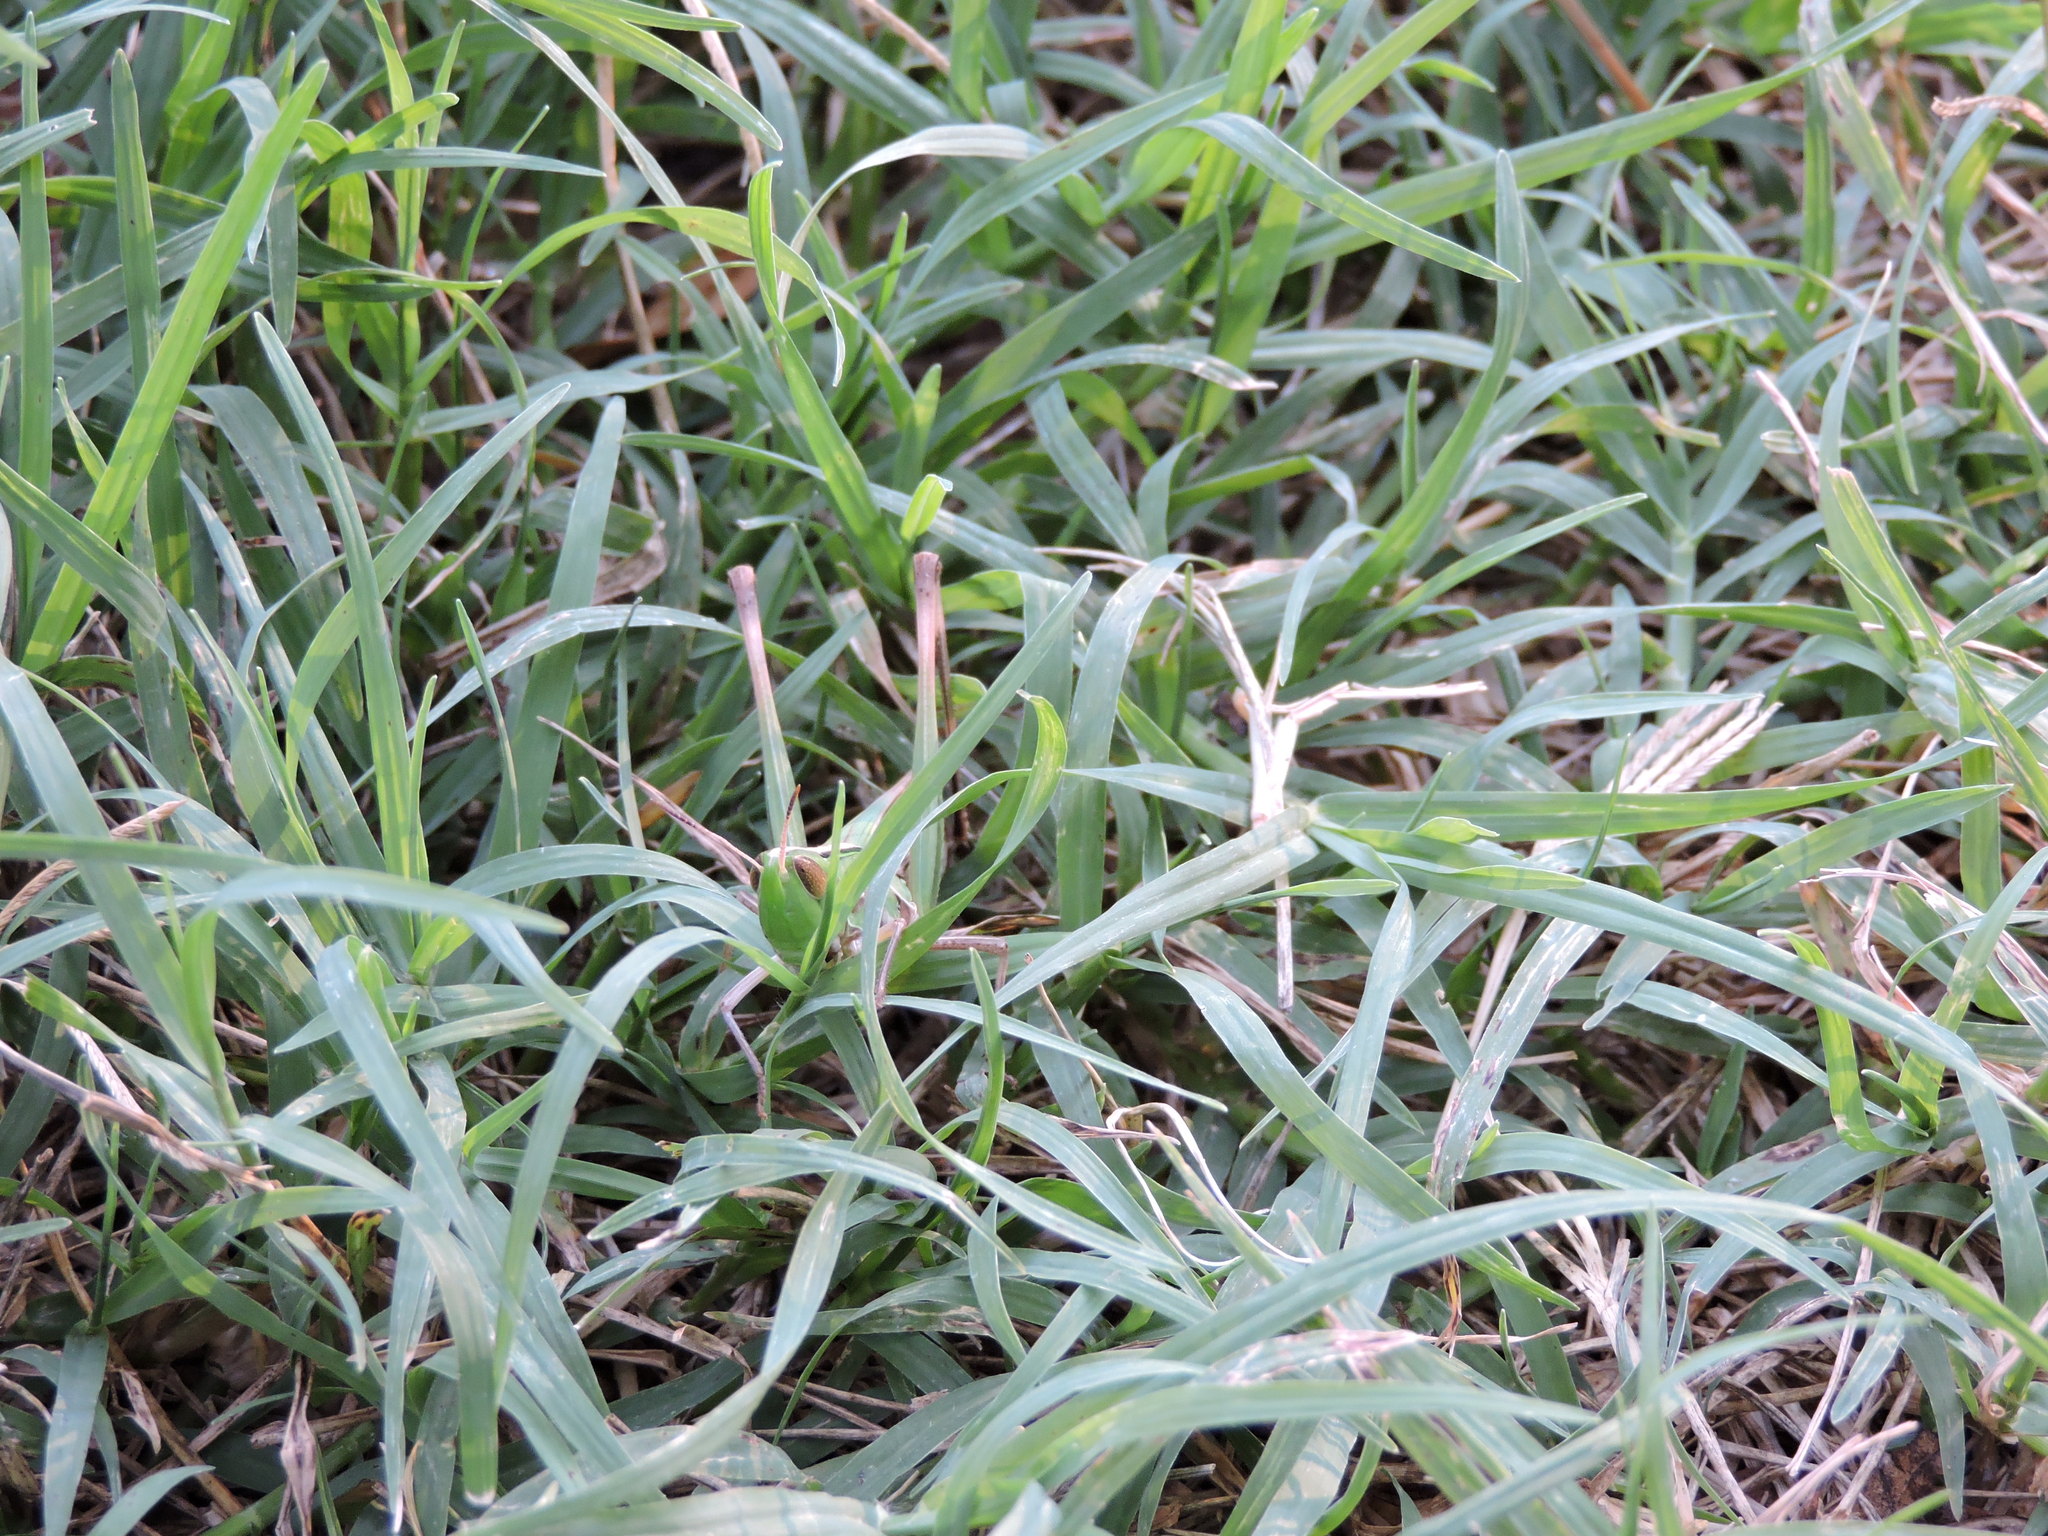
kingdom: Animalia
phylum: Arthropoda
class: Insecta
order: Orthoptera
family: Acrididae
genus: Syrbula
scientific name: Syrbula admirabilis
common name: Handsome grasshopper
